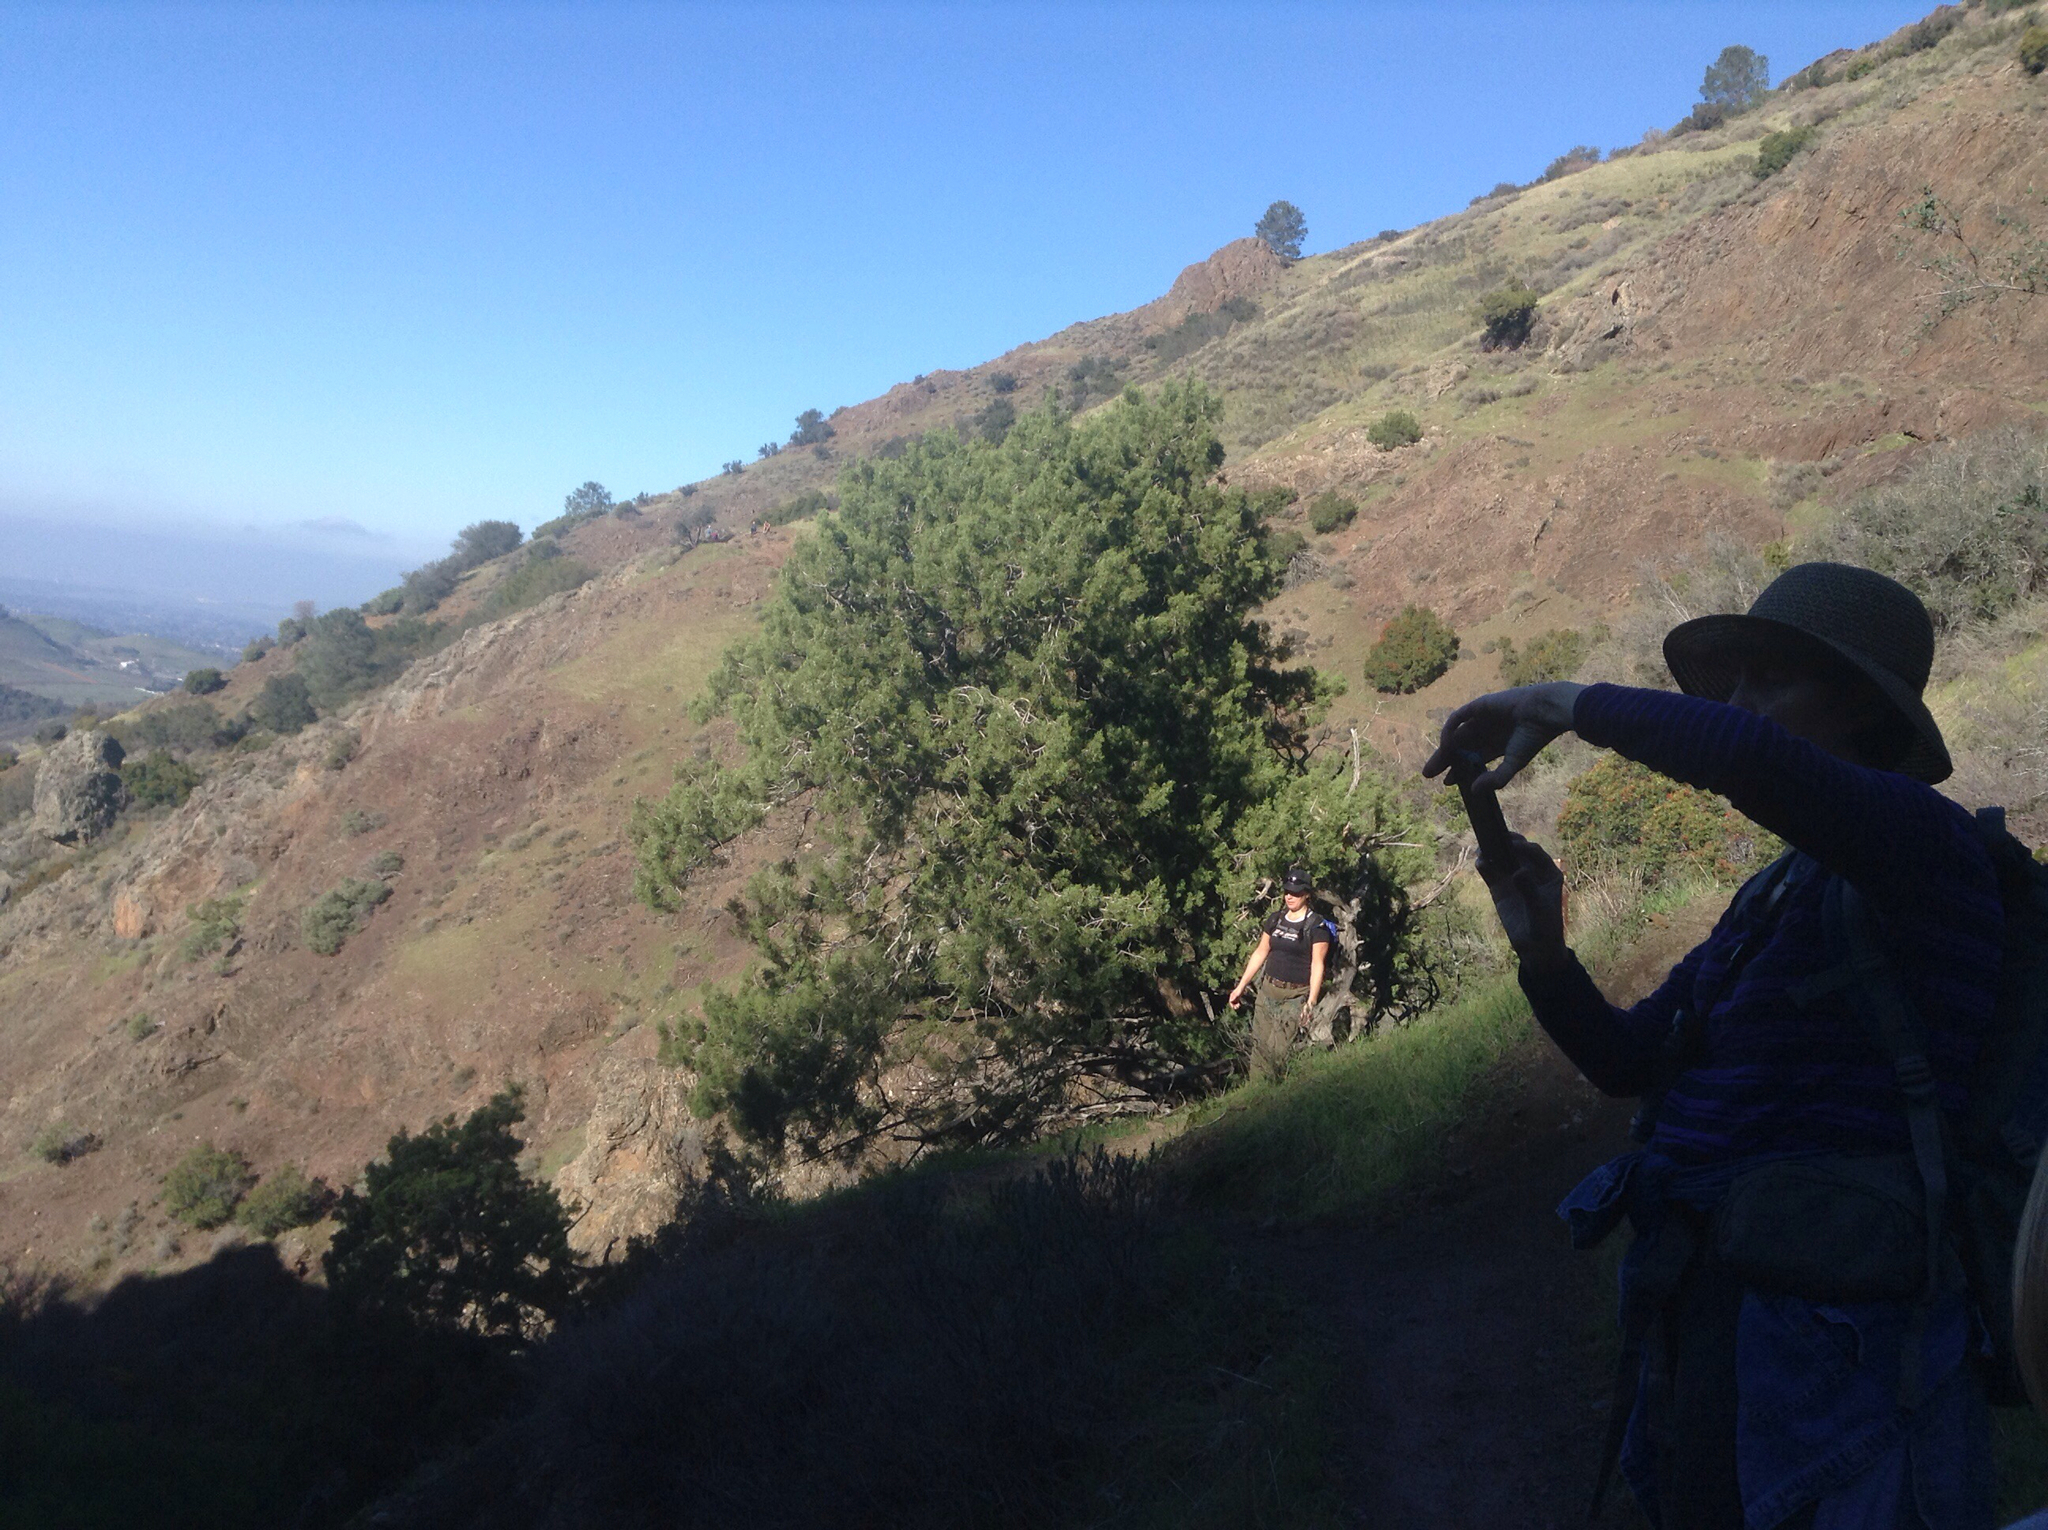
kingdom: Plantae
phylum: Tracheophyta
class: Pinopsida
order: Pinales
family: Cupressaceae
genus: Juniperus
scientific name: Juniperus californica
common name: California juniper
